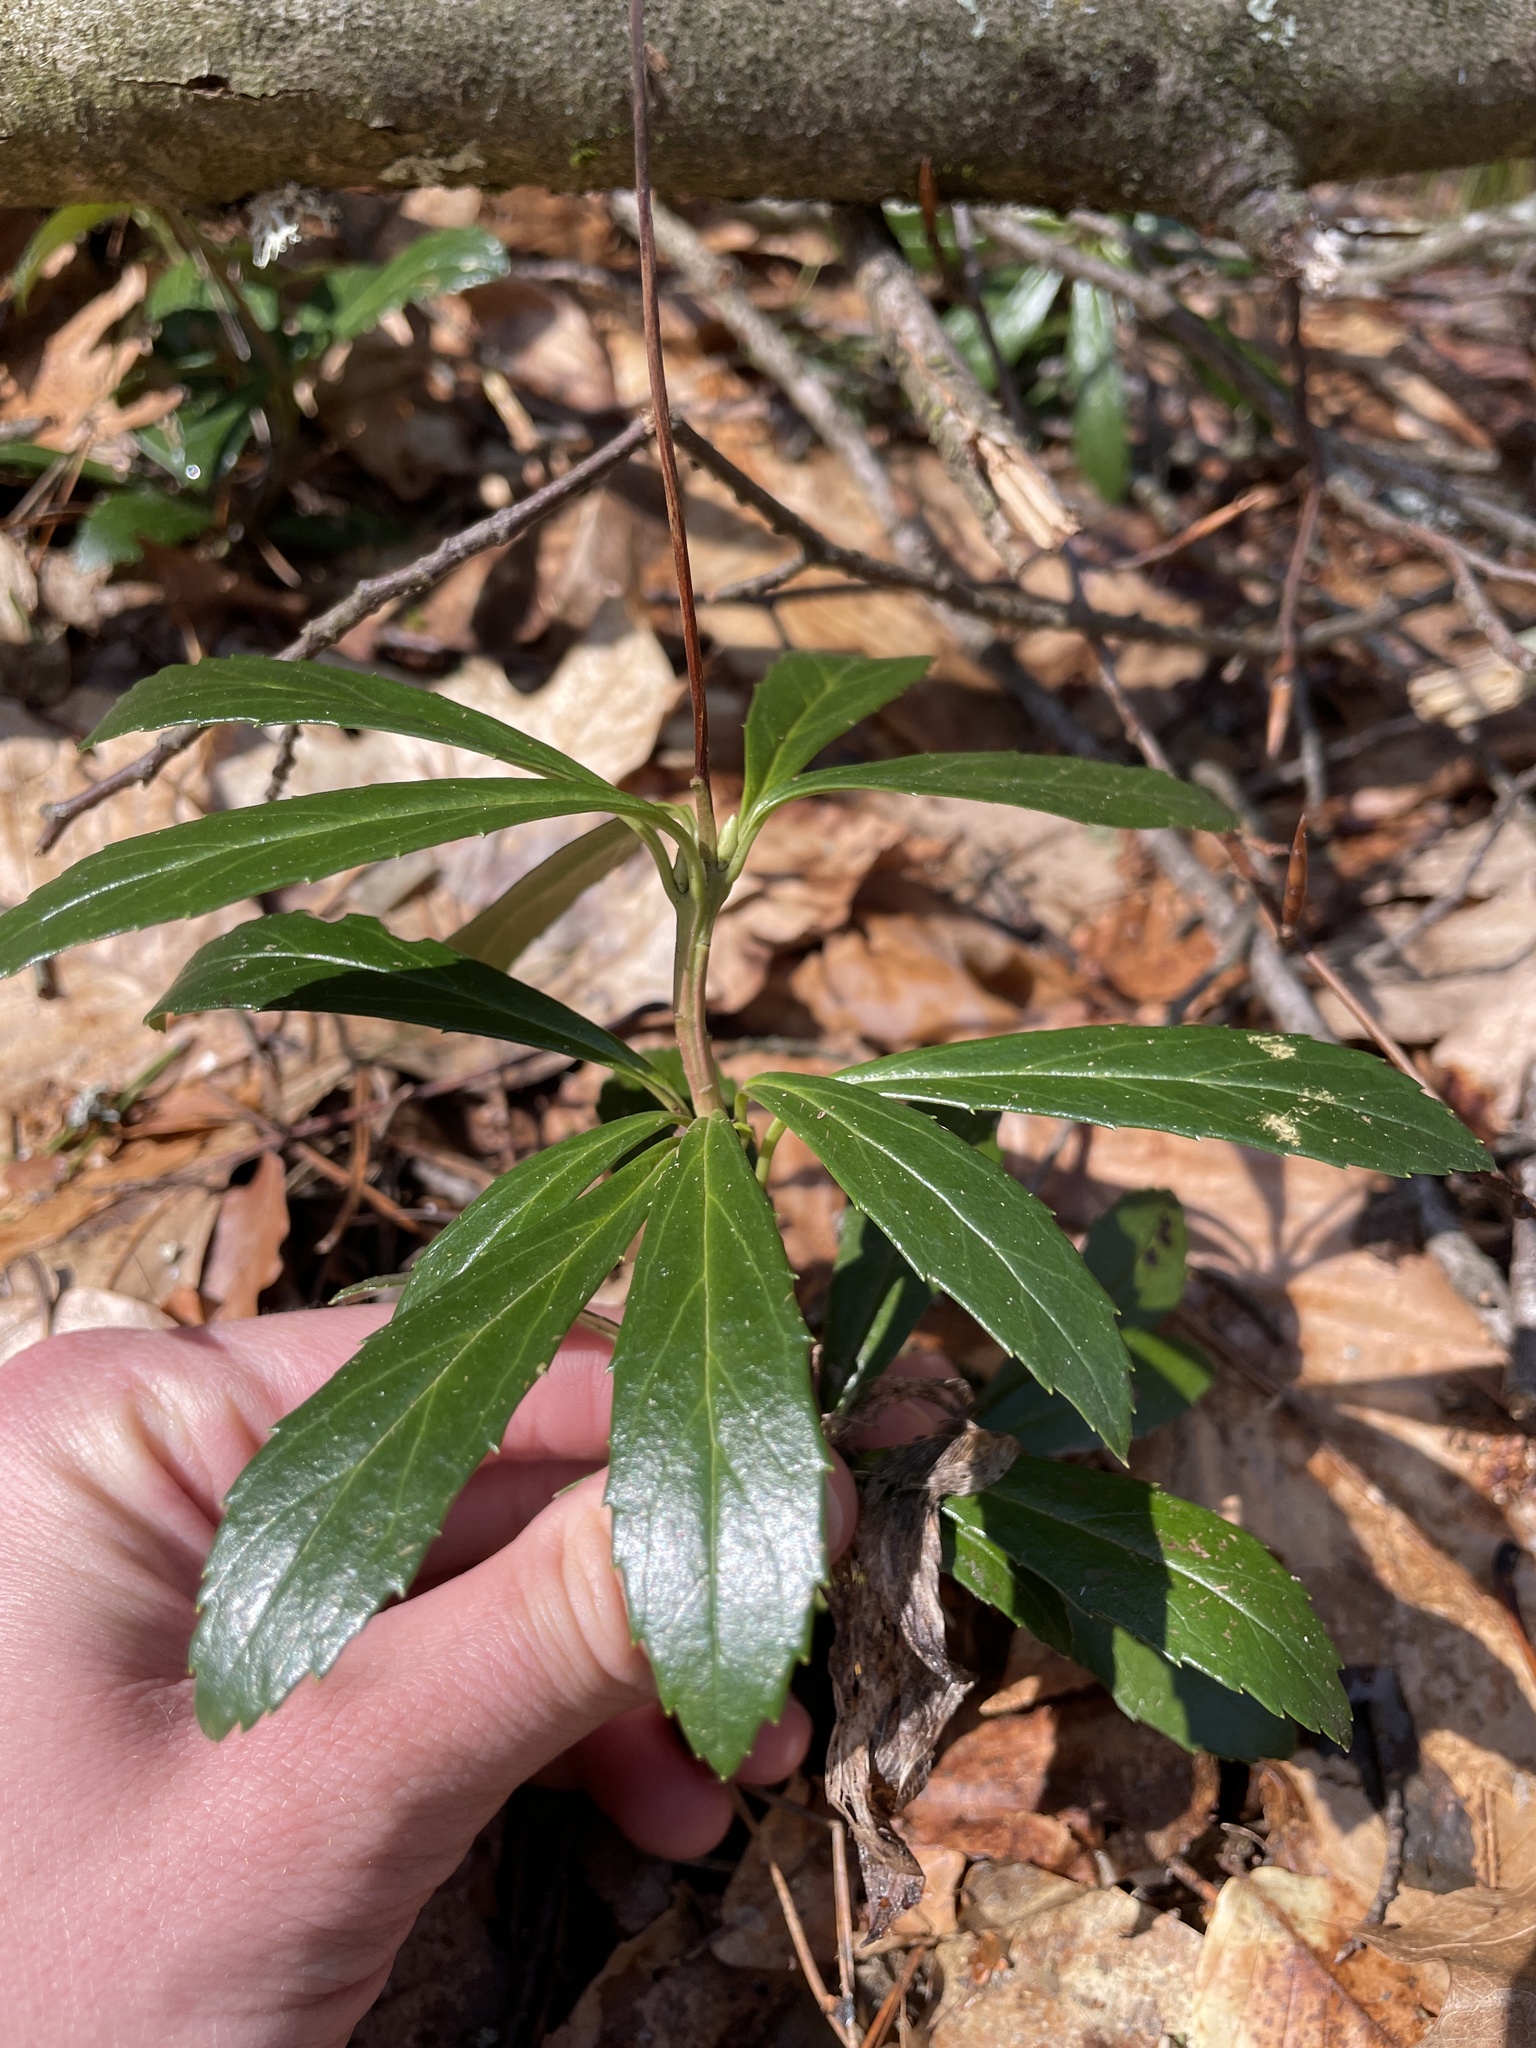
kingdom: Plantae
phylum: Tracheophyta
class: Magnoliopsida
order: Ericales
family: Ericaceae
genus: Chimaphila
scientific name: Chimaphila umbellata
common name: Pipsissewa
